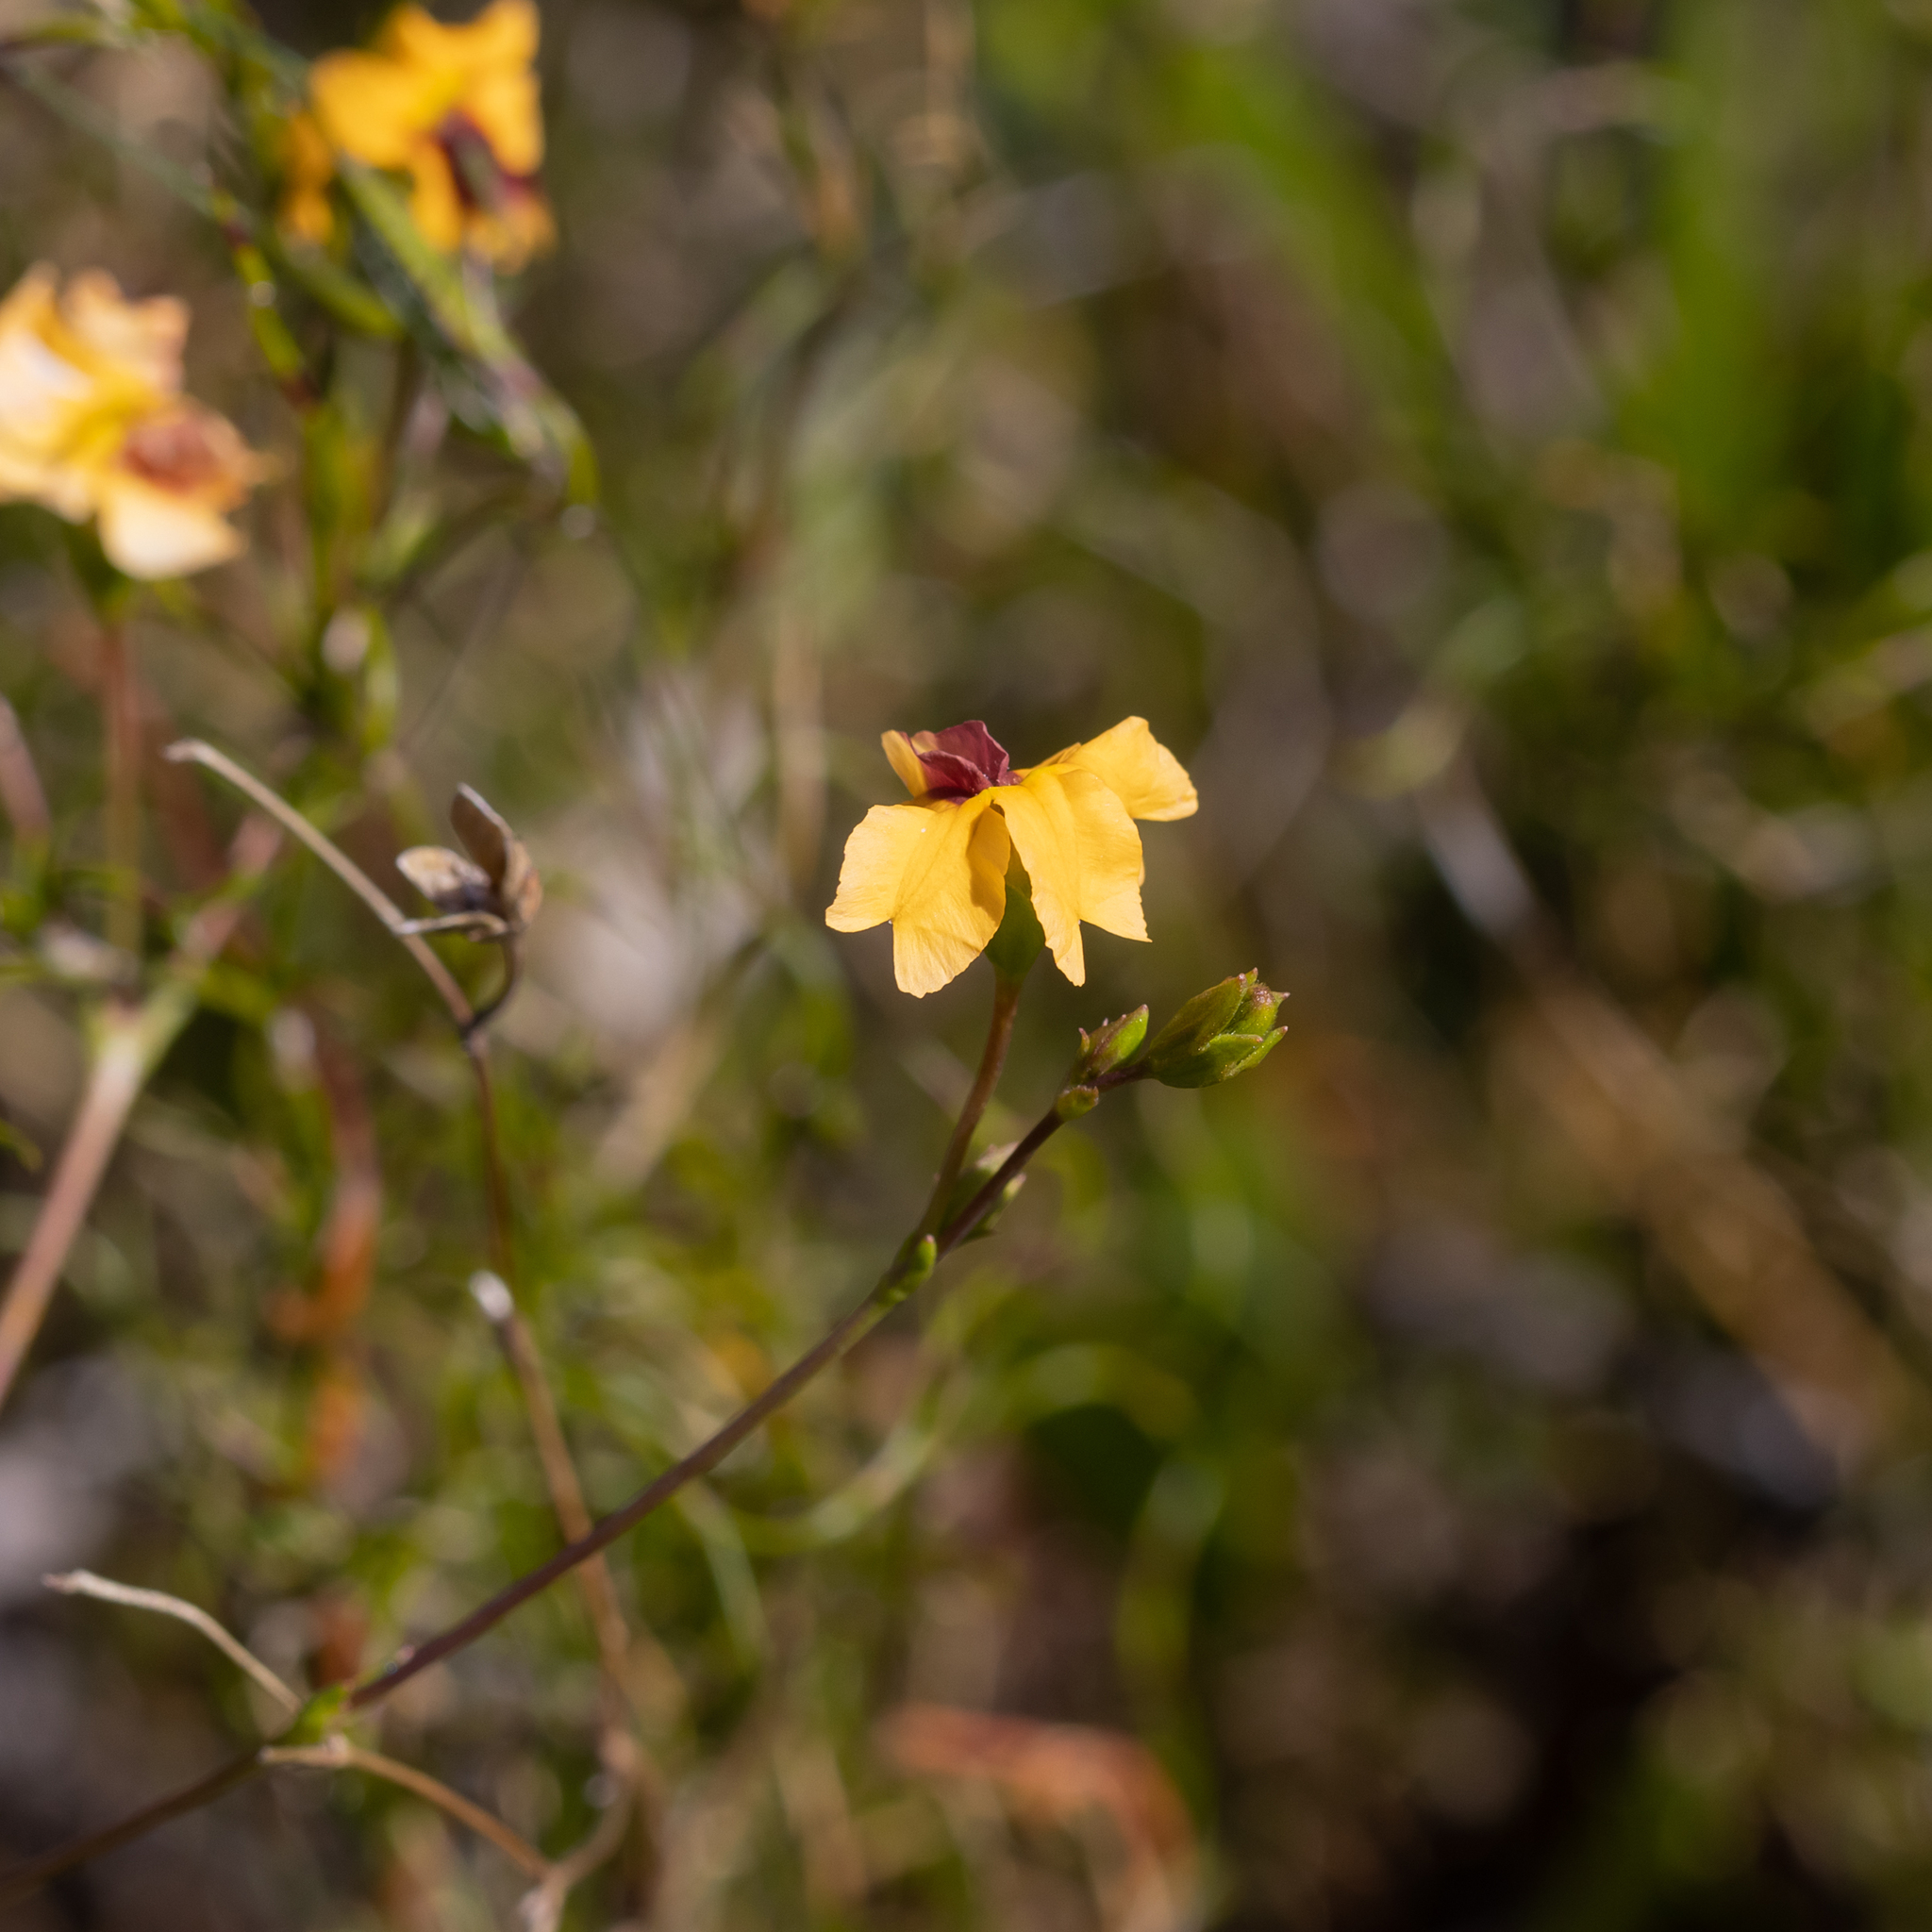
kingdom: Plantae
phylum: Tracheophyta
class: Magnoliopsida
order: Asterales
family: Goodeniaceae
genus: Goodenia
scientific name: Goodenia trinervis
